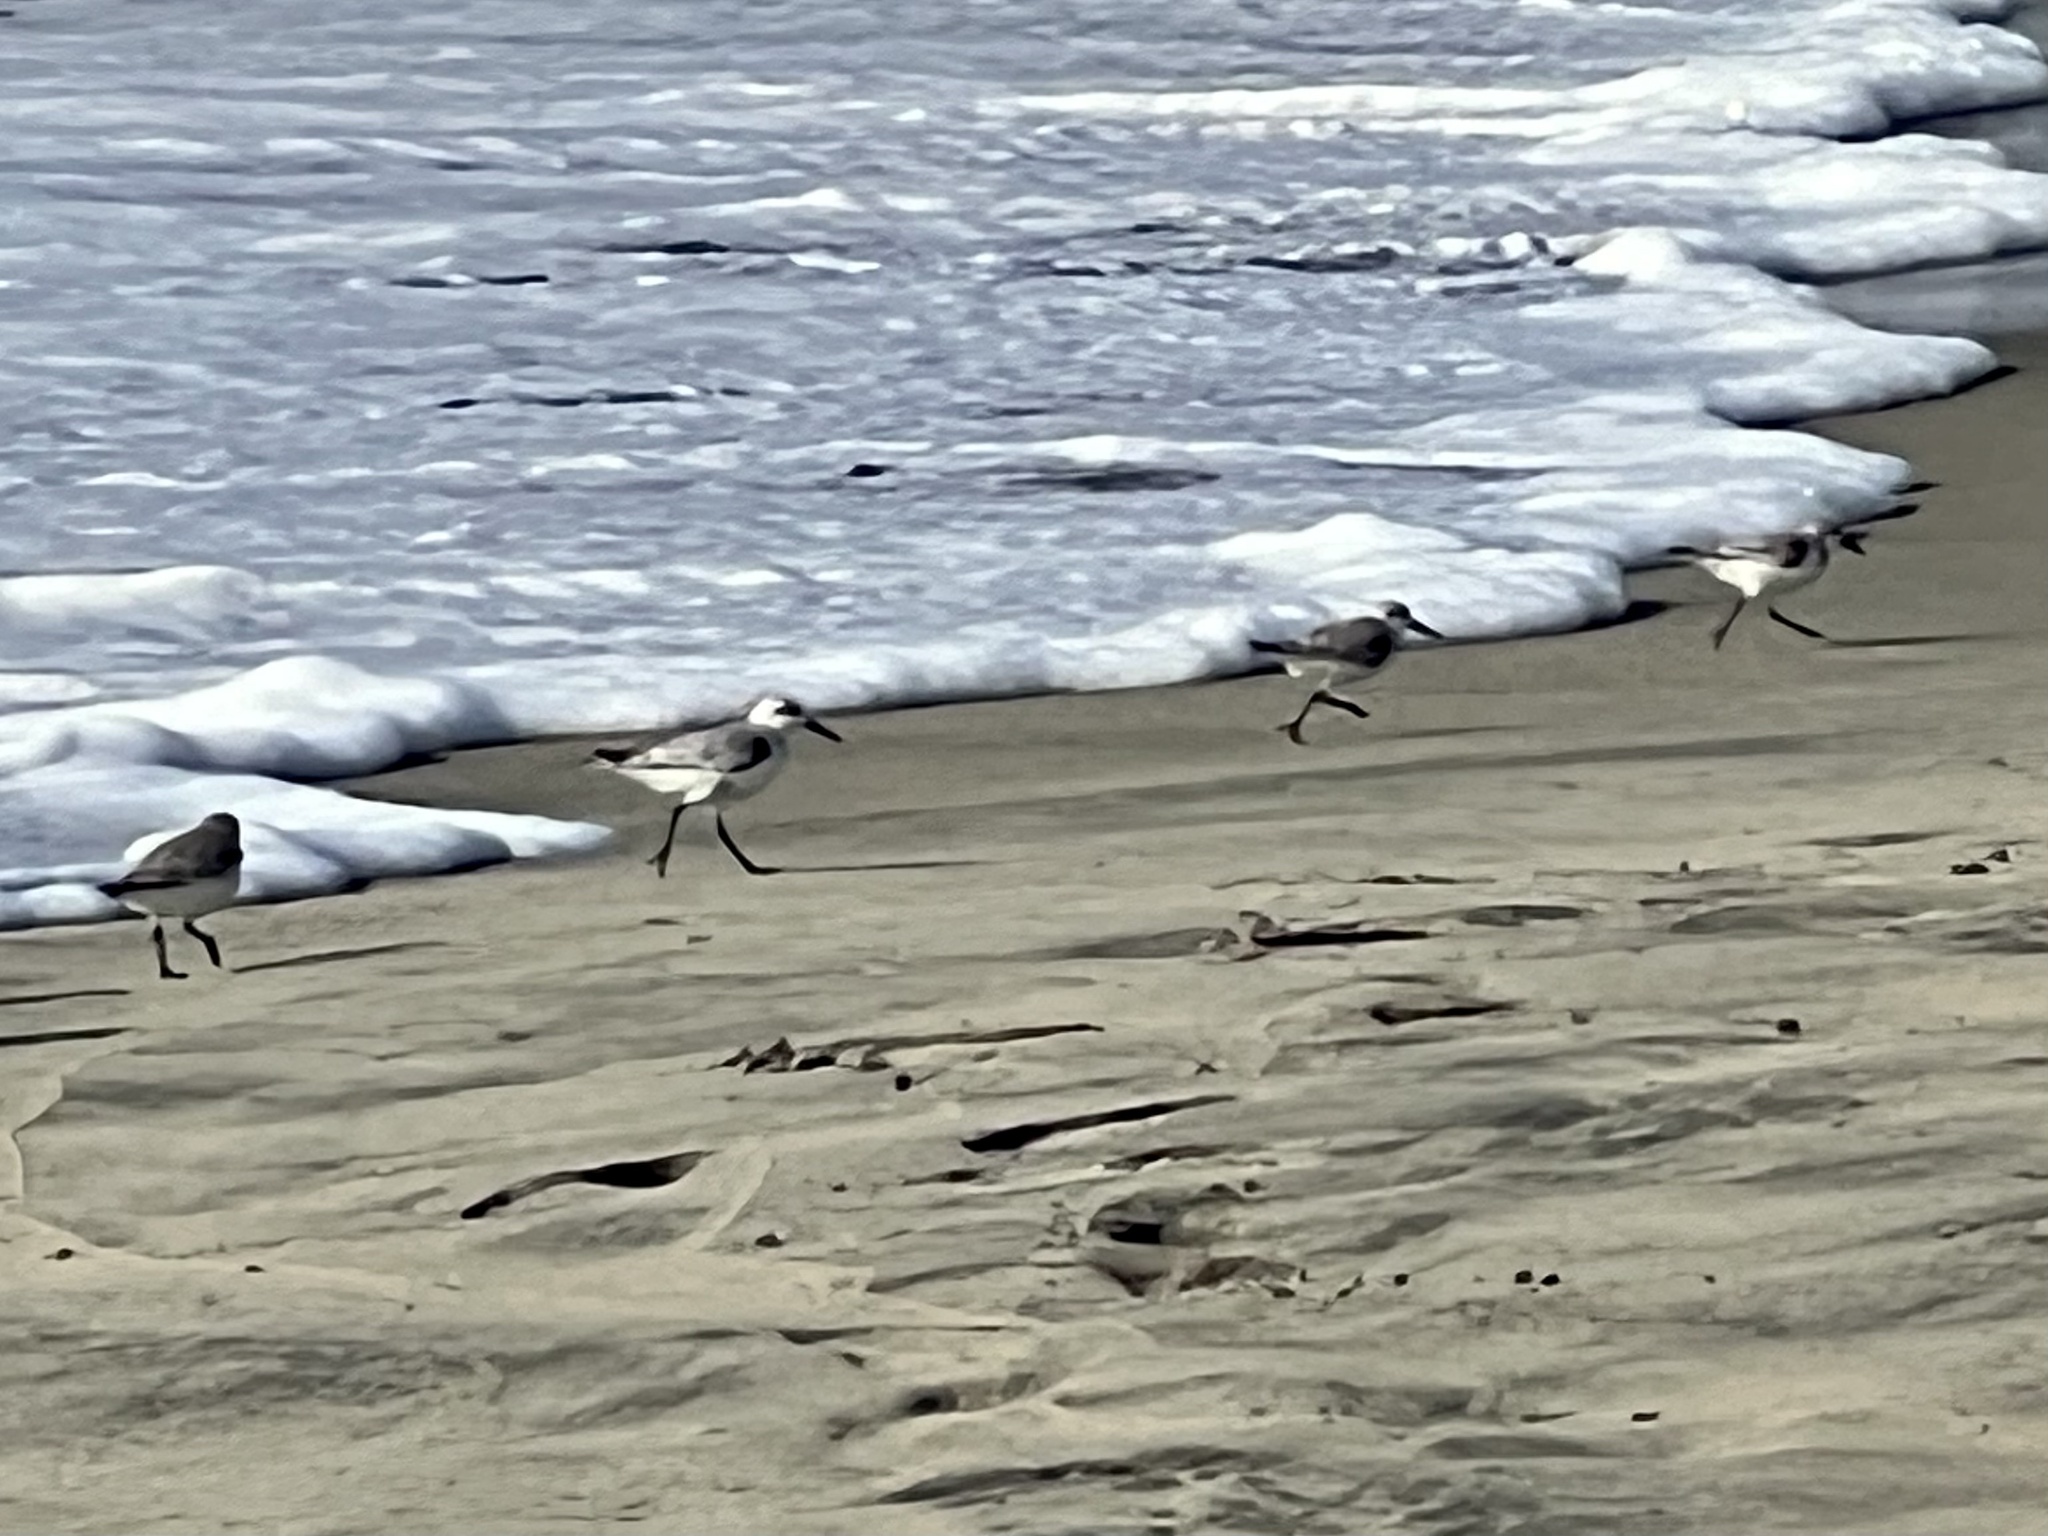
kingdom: Animalia
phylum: Chordata
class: Aves
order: Charadriiformes
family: Scolopacidae
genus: Calidris
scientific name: Calidris alba
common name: Sanderling
